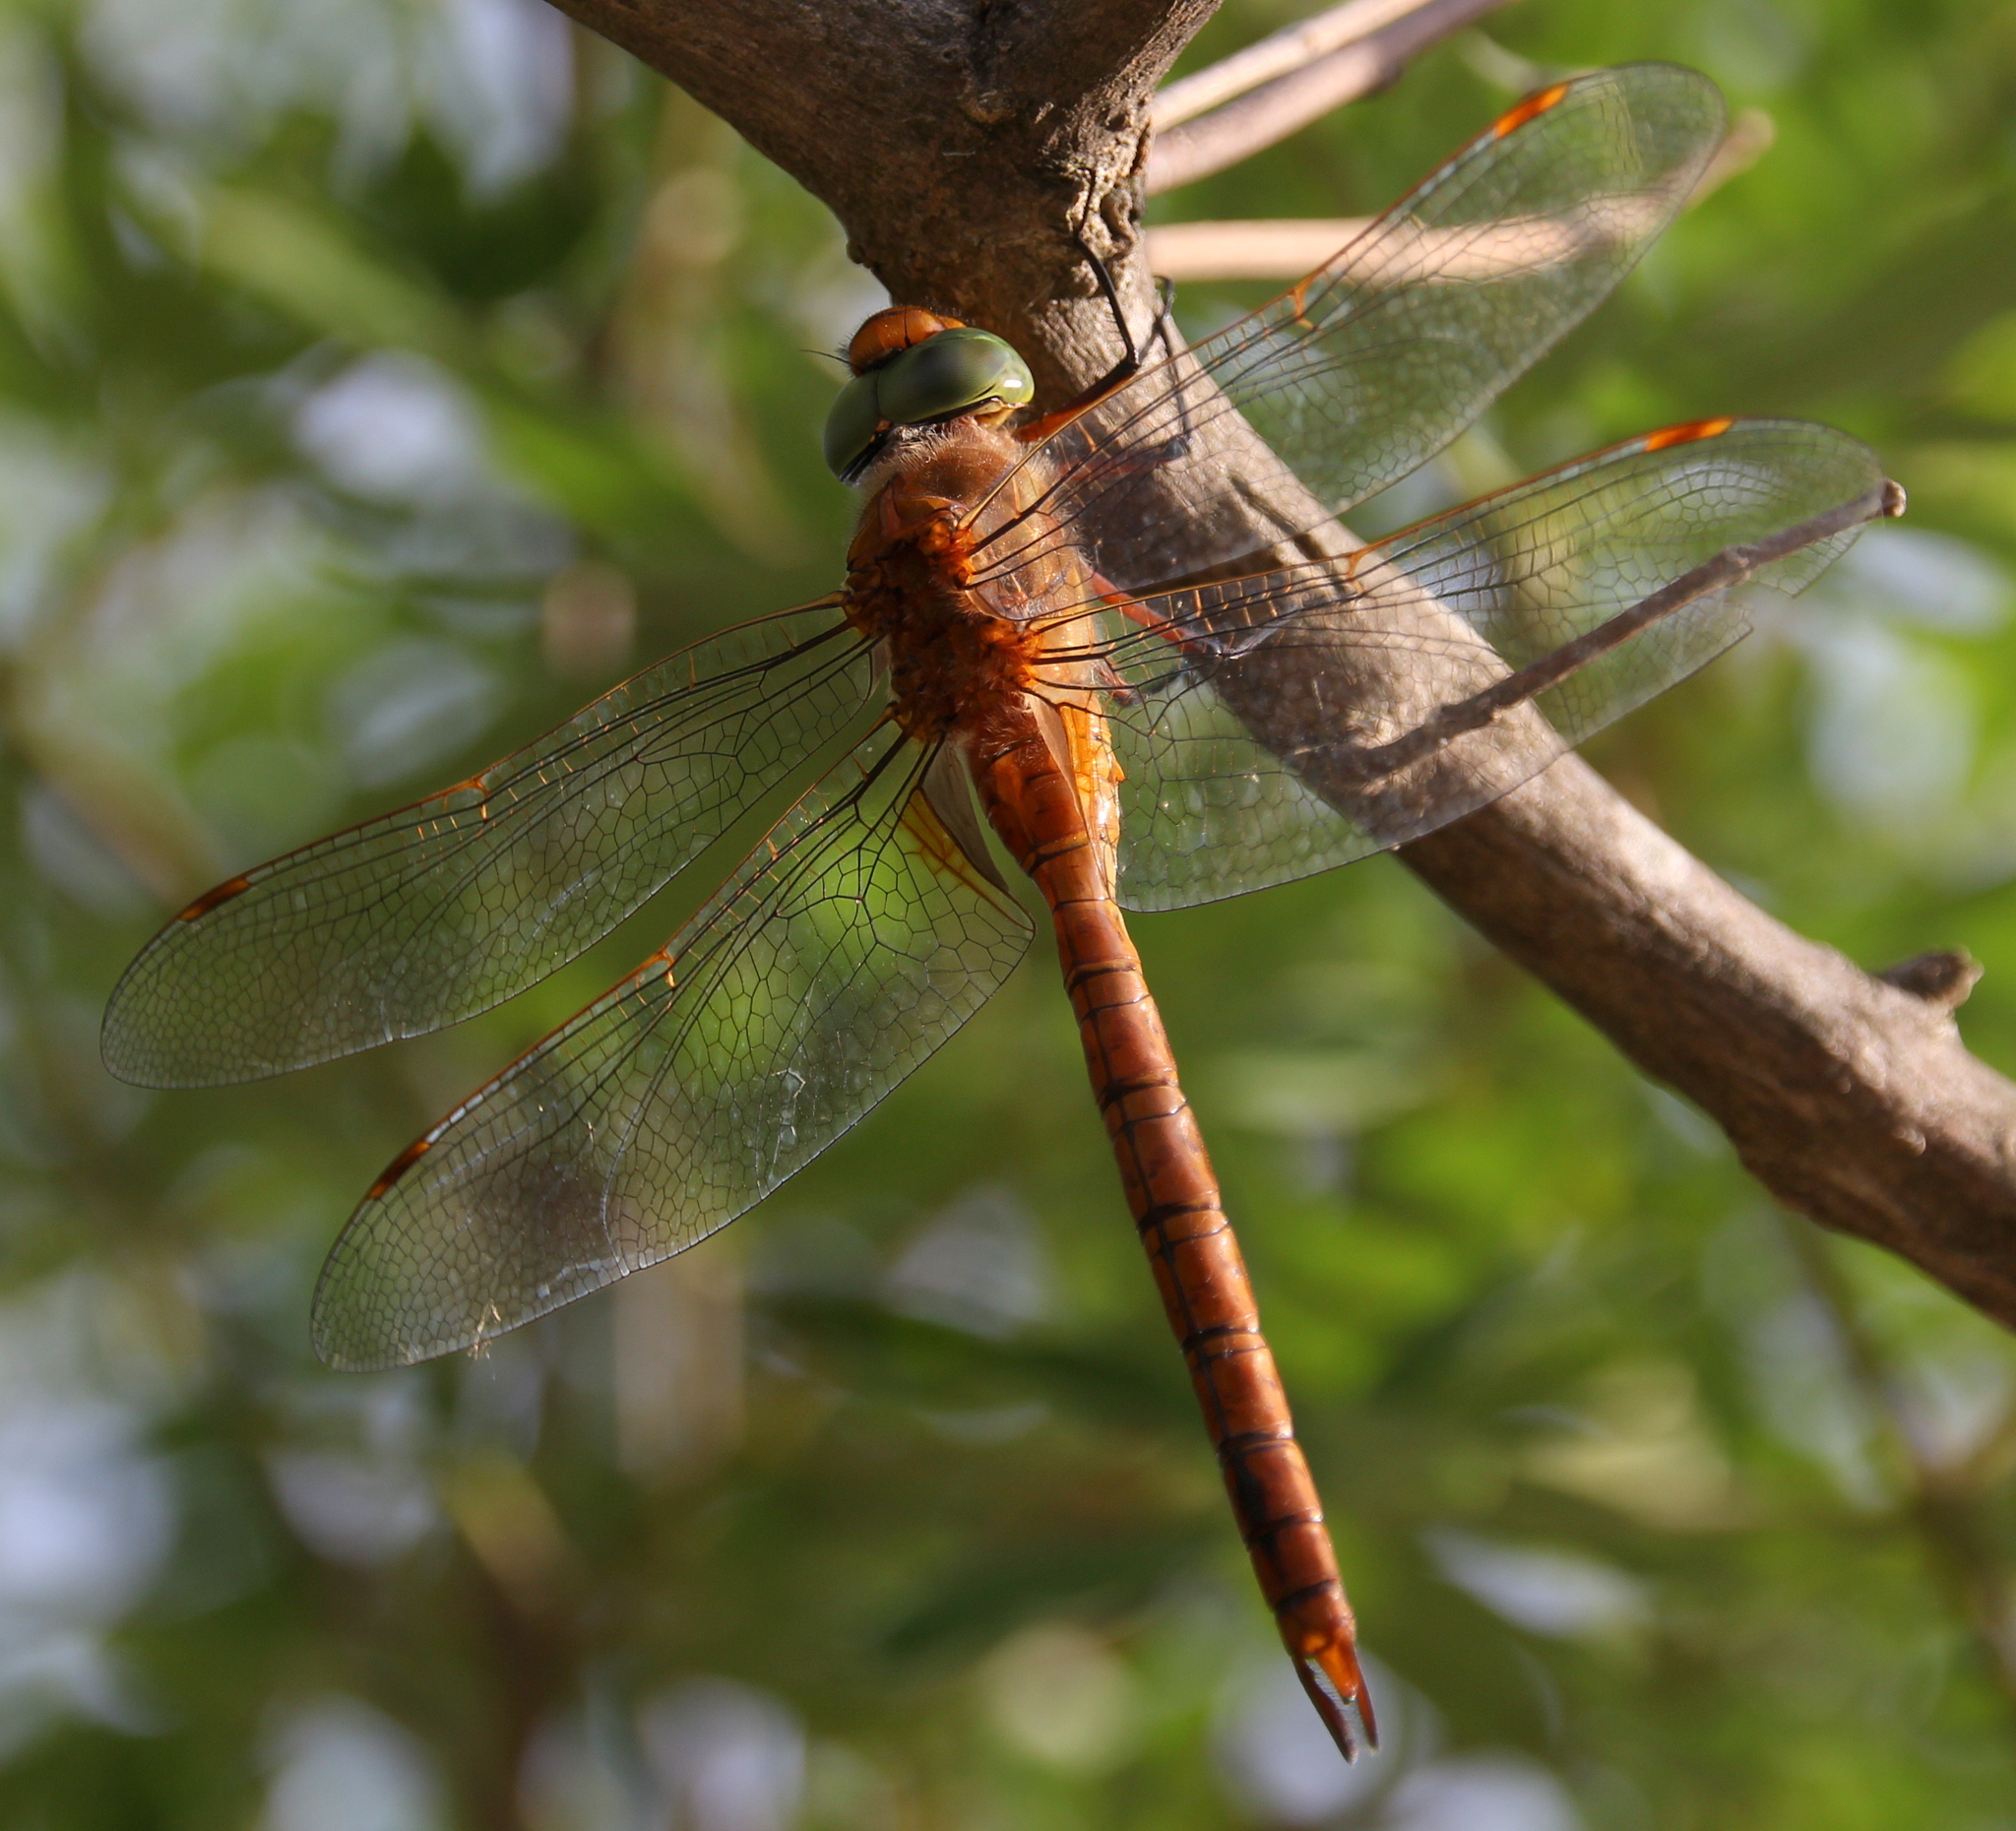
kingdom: Animalia
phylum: Arthropoda
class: Insecta
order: Odonata
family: Aeshnidae
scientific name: Aeshnidae
